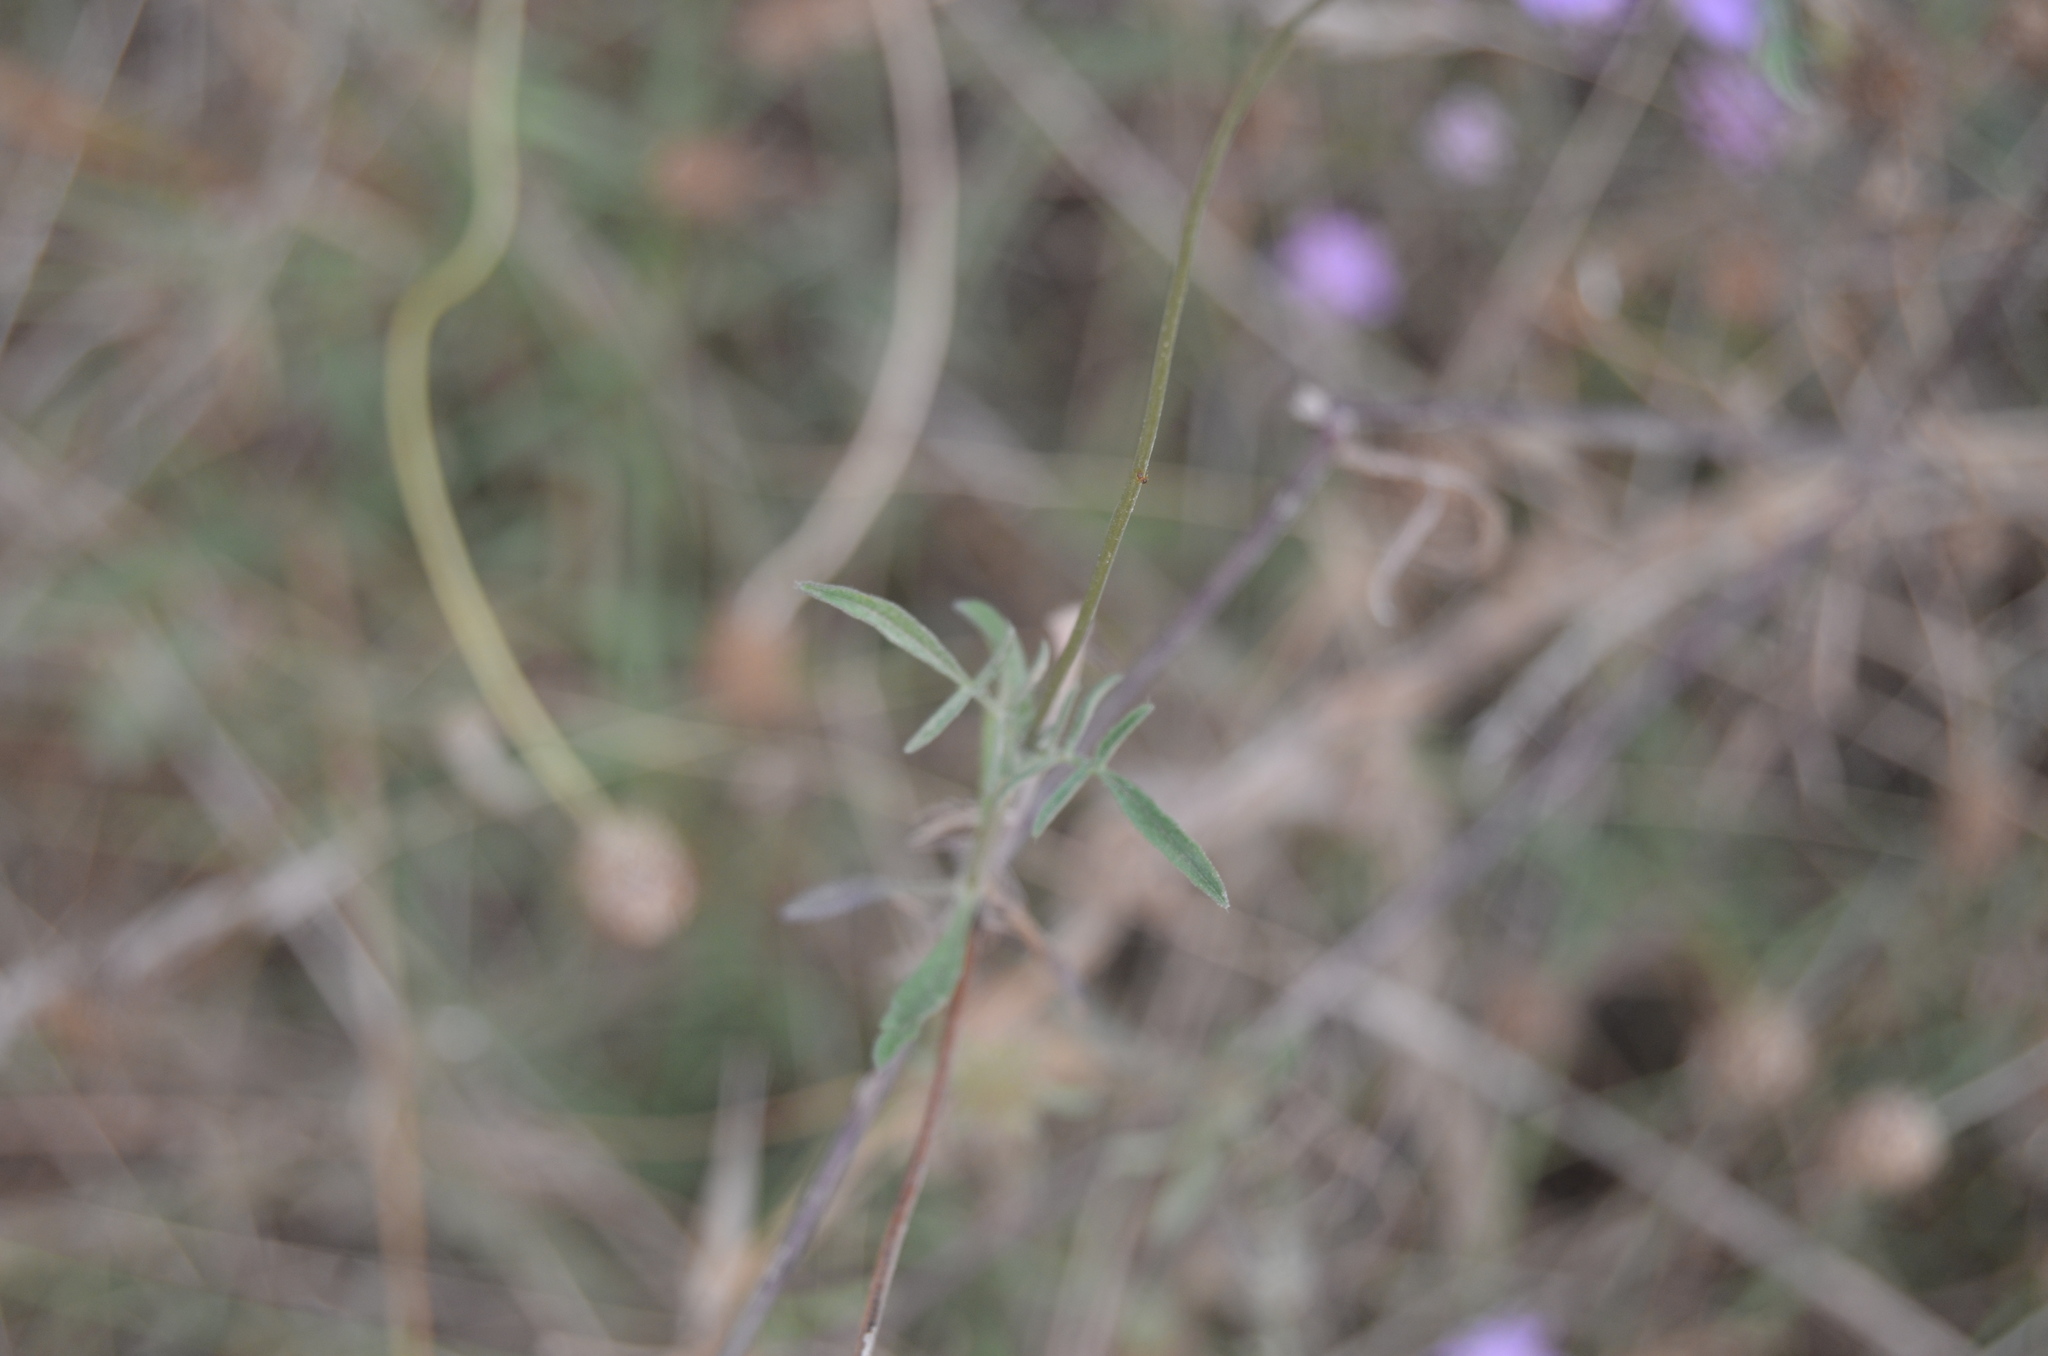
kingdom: Plantae
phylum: Tracheophyta
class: Magnoliopsida
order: Dipsacales
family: Caprifoliaceae
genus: Sixalix
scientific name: Sixalix atropurpurea
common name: Sweet scabious
